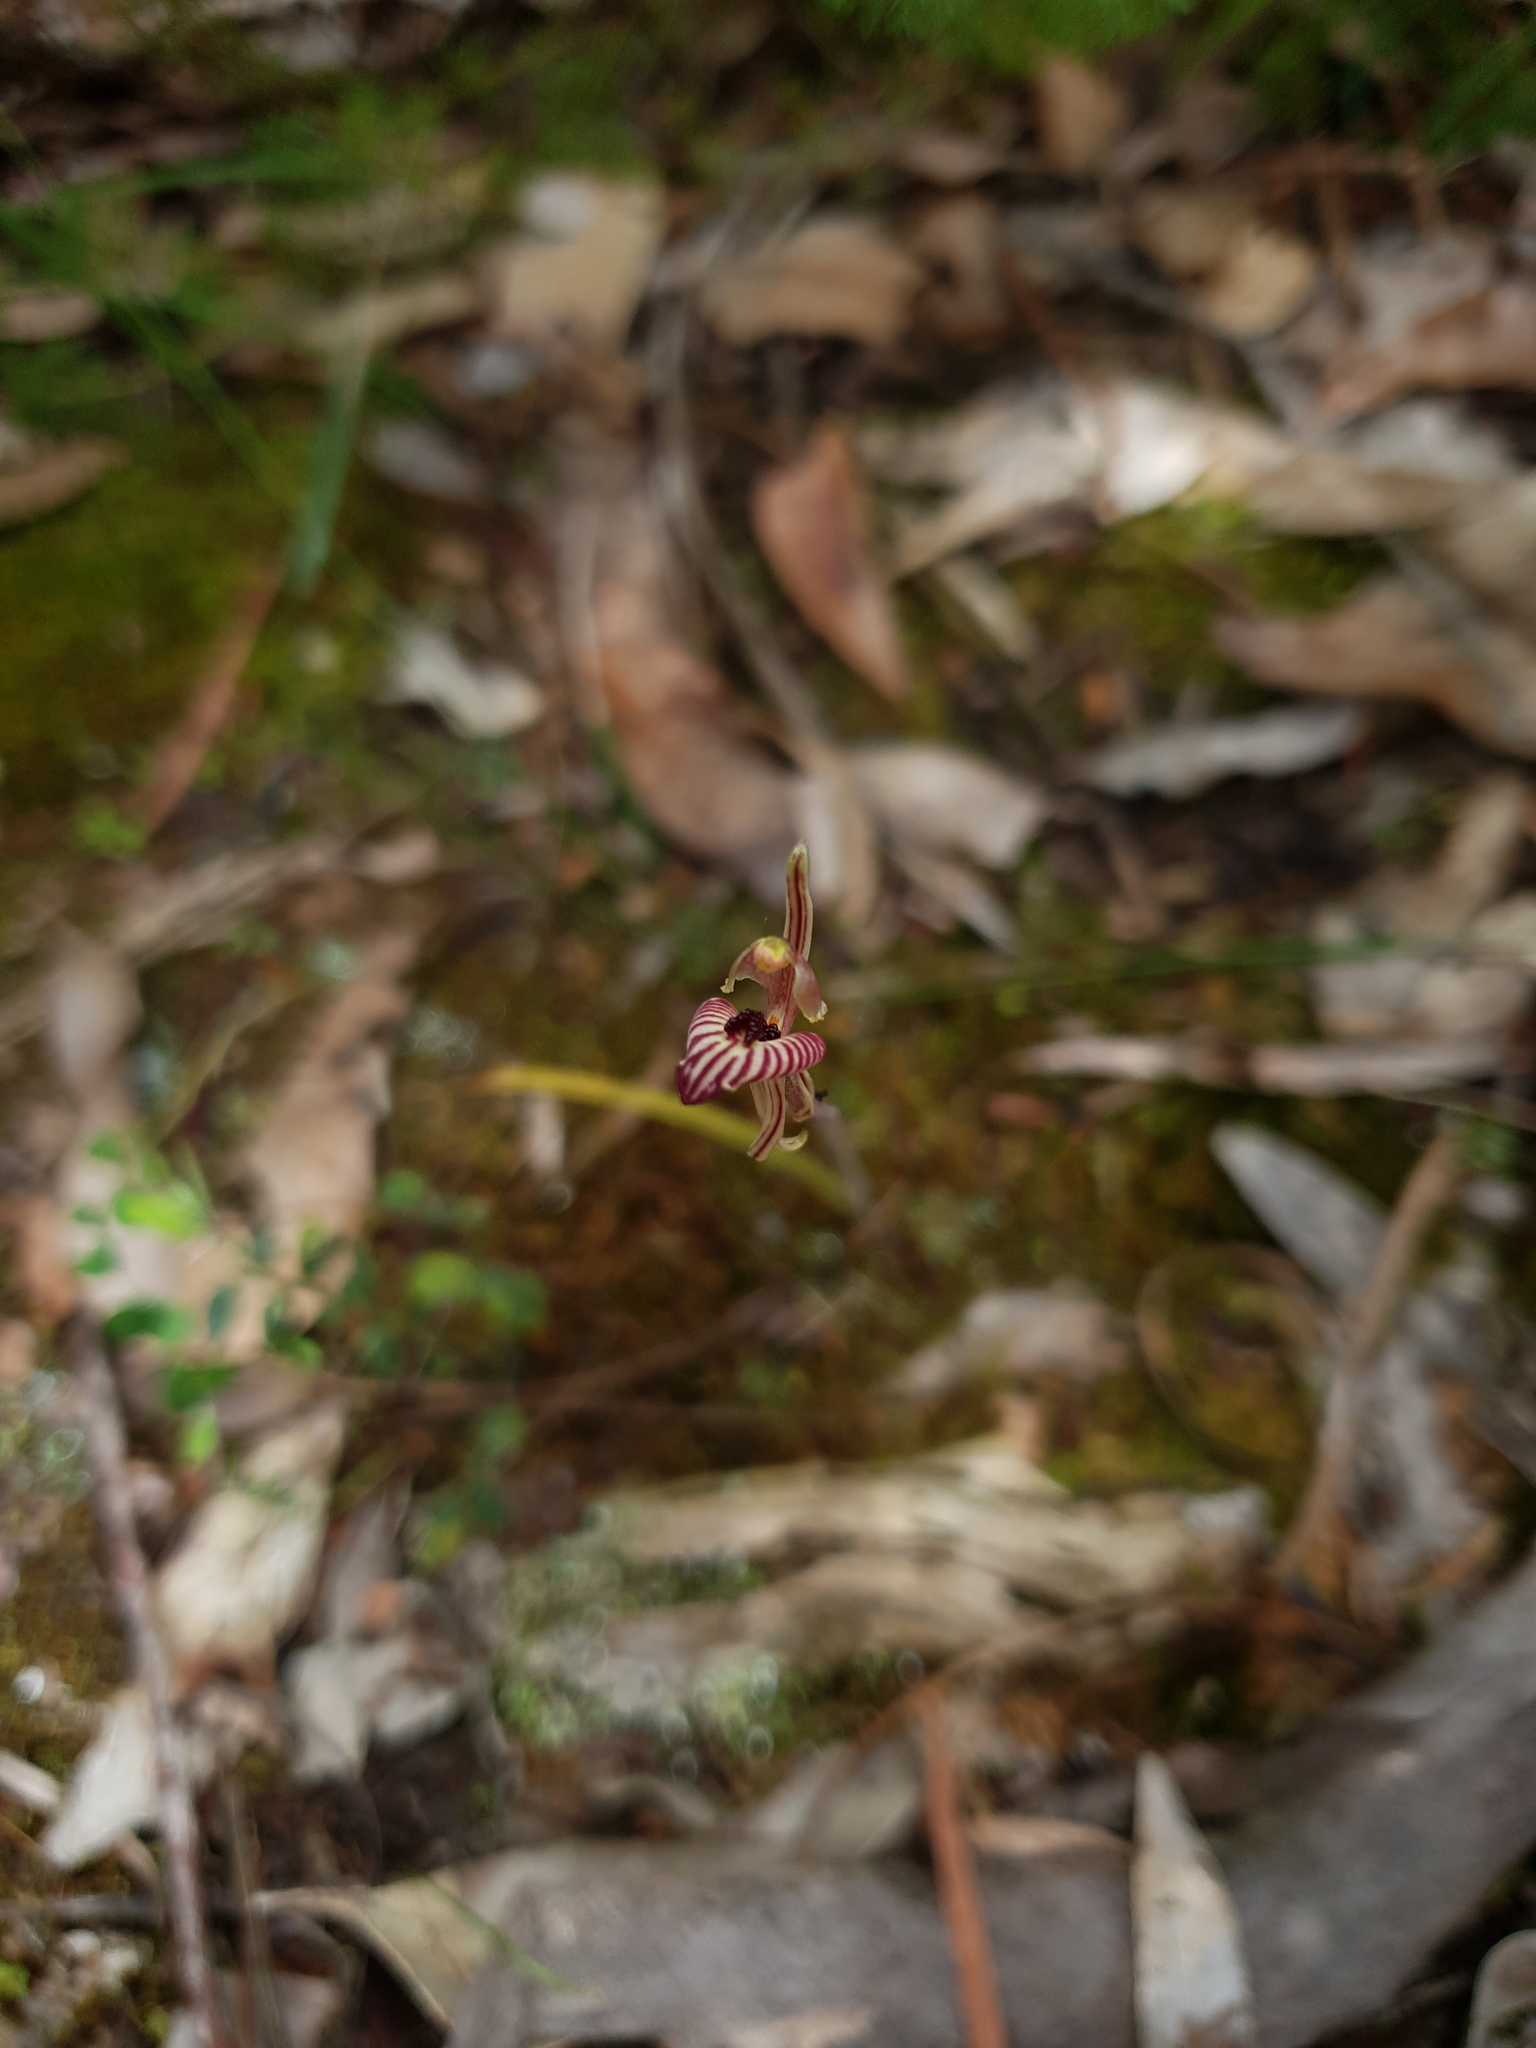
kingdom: Plantae
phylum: Tracheophyta
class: Liliopsida
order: Asparagales
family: Orchidaceae
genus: Caladenia
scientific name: Caladenia cairnsiana
